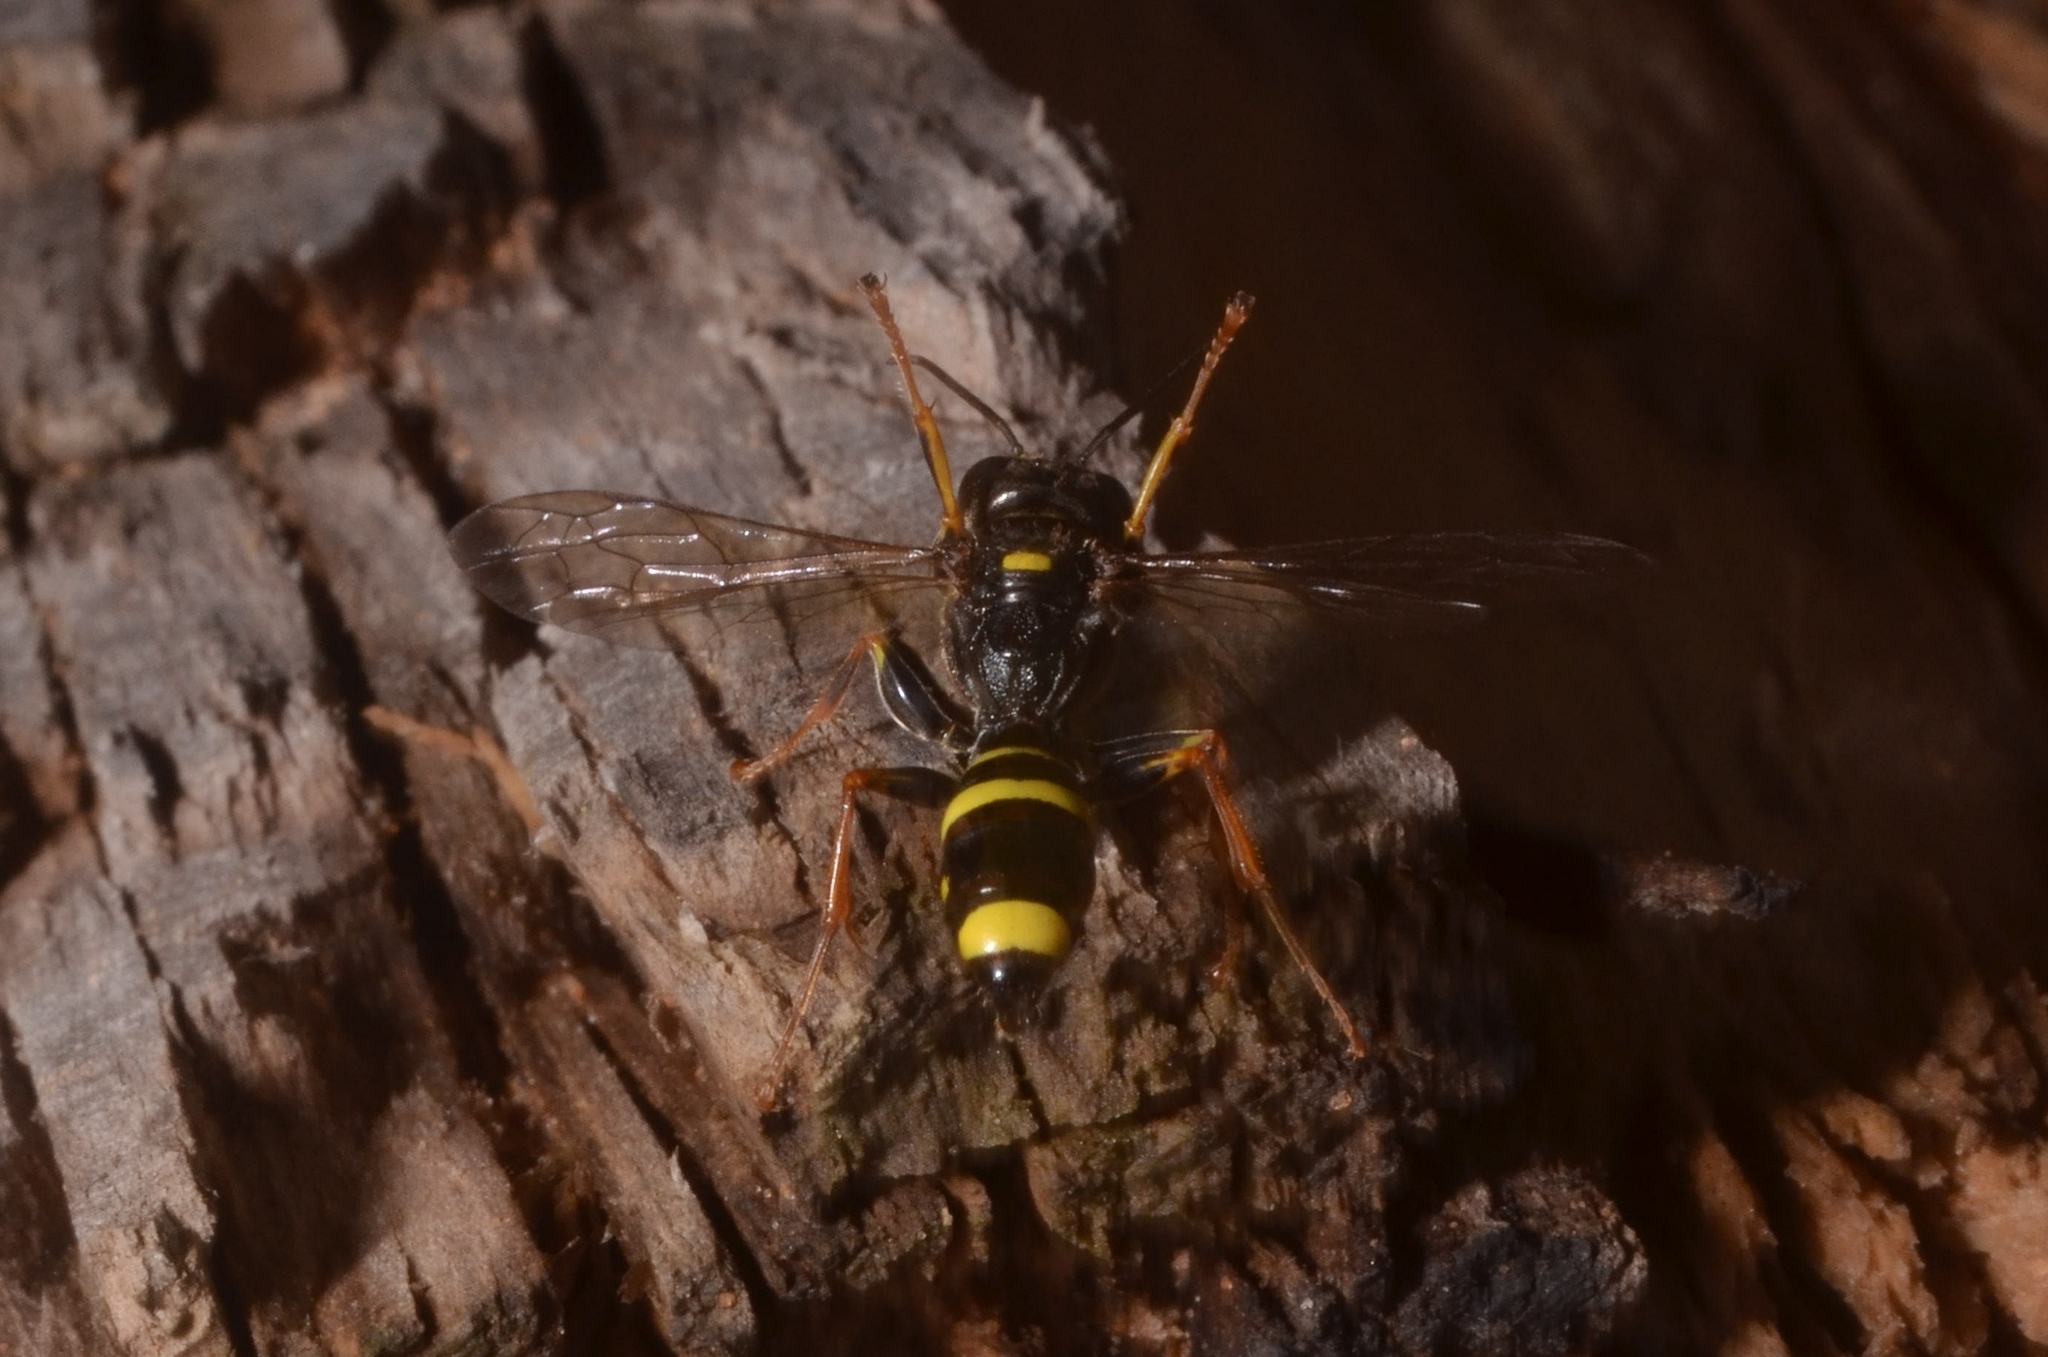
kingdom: Animalia
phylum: Arthropoda
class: Insecta
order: Hymenoptera
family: Crabronidae
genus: Mellinus
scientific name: Mellinus arvensis
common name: Field digger wasp
